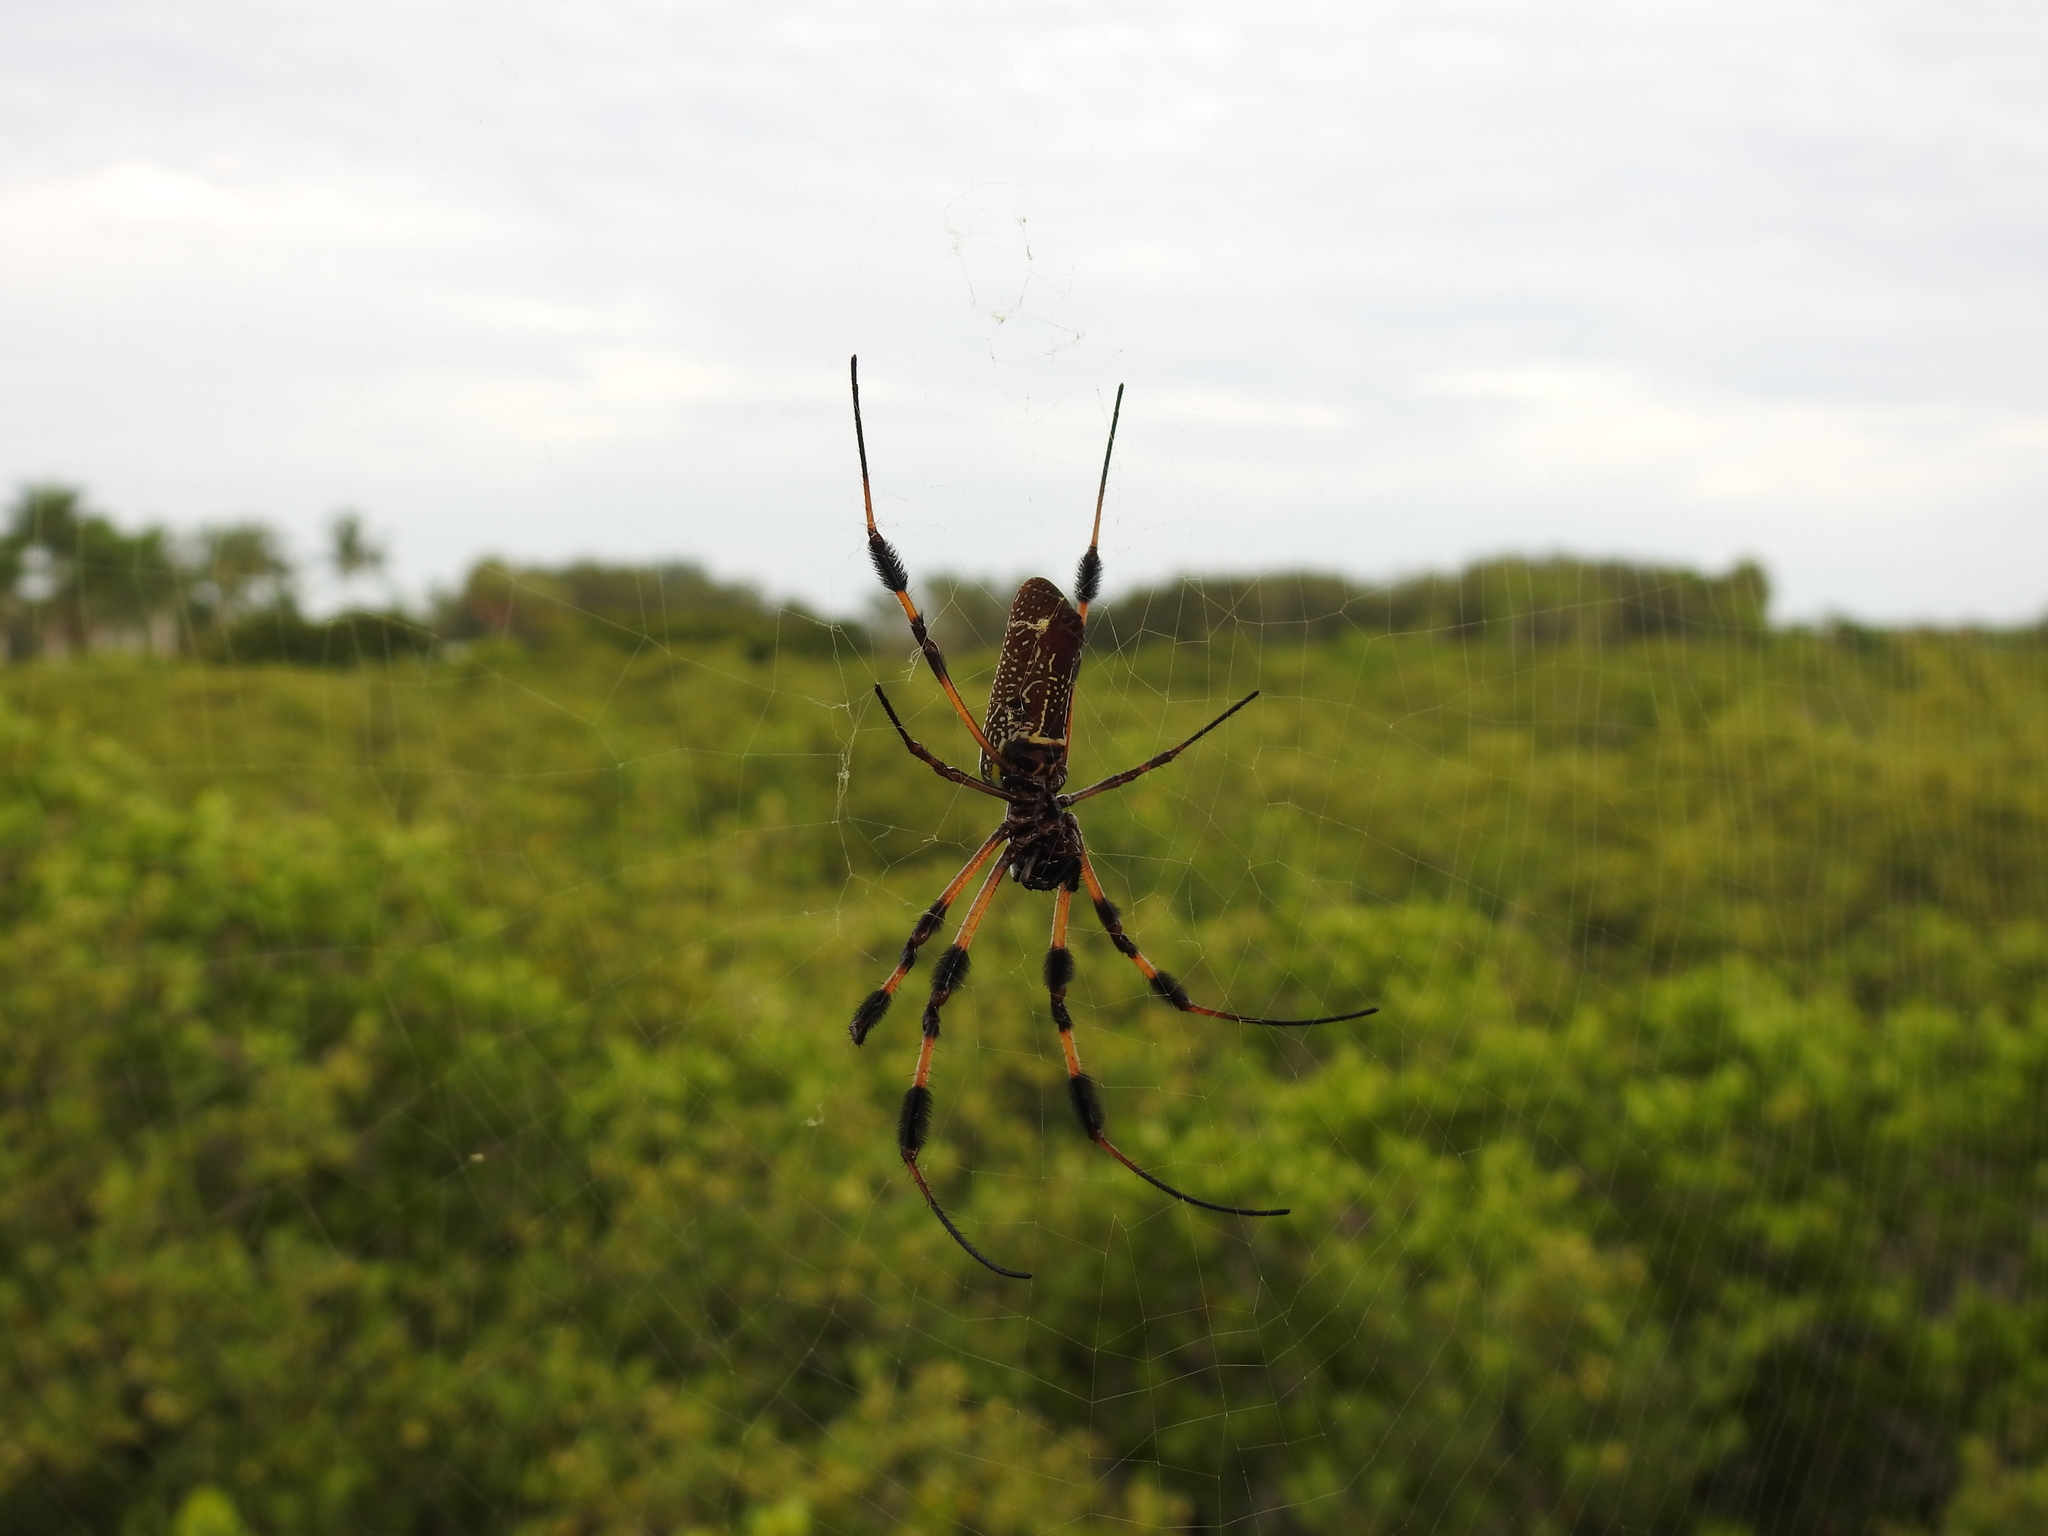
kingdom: Animalia
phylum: Arthropoda
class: Arachnida
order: Araneae
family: Araneidae
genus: Trichonephila
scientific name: Trichonephila clavipes
